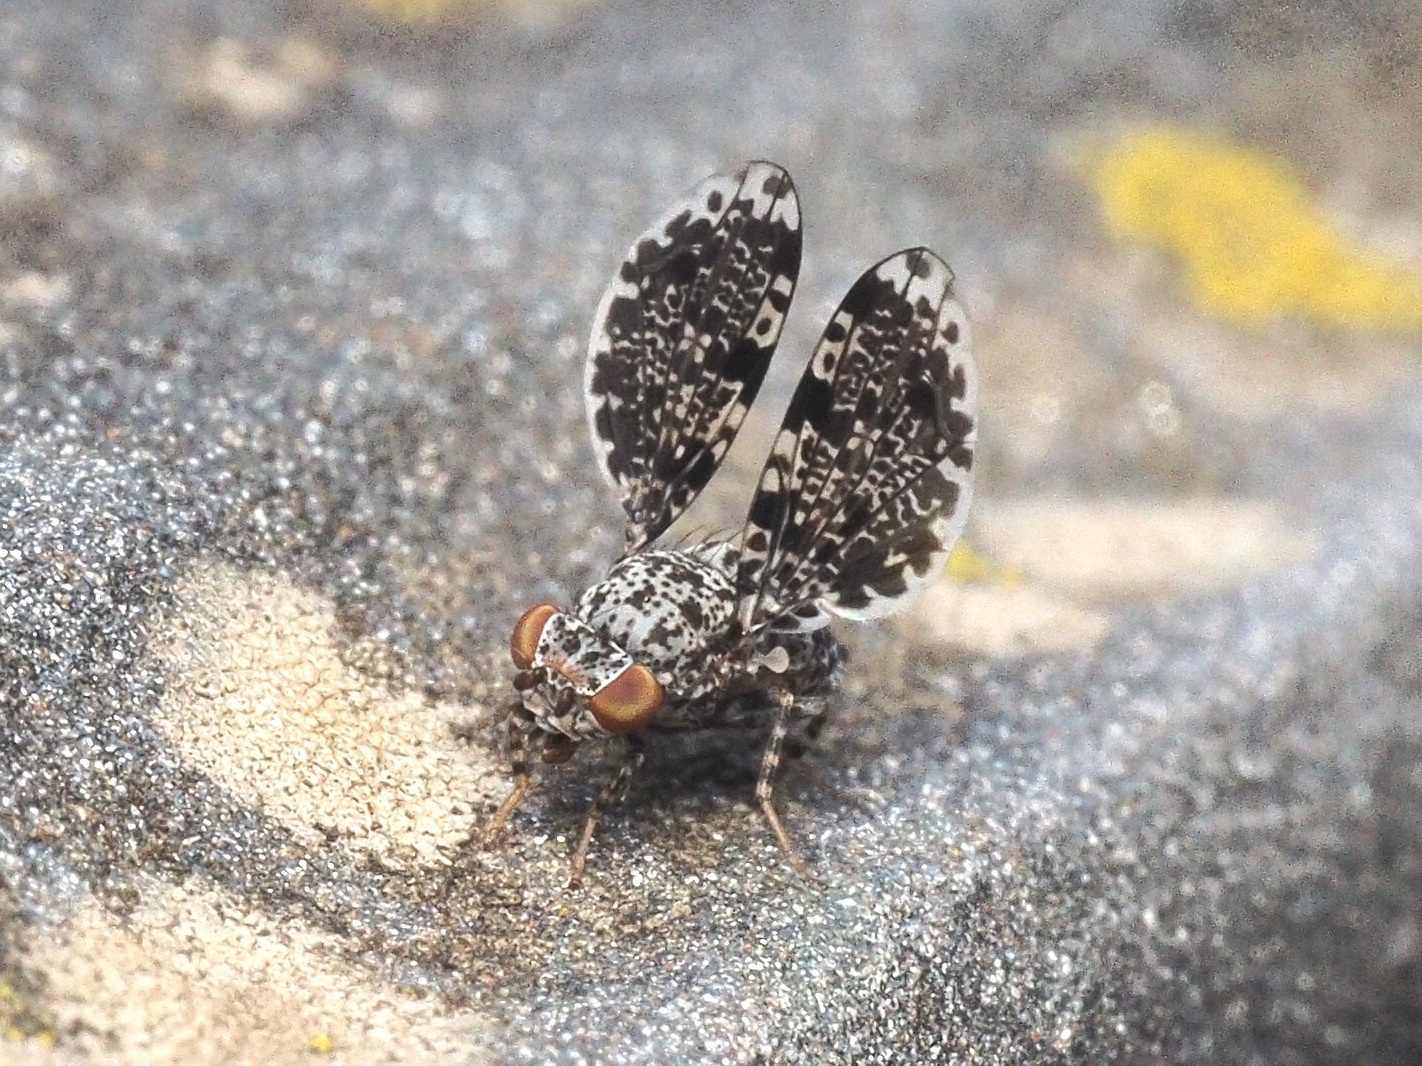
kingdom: Animalia
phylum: Arthropoda
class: Insecta
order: Diptera
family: Ulidiidae
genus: Callopistromyia
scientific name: Callopistromyia annulipes
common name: Peacock fly
